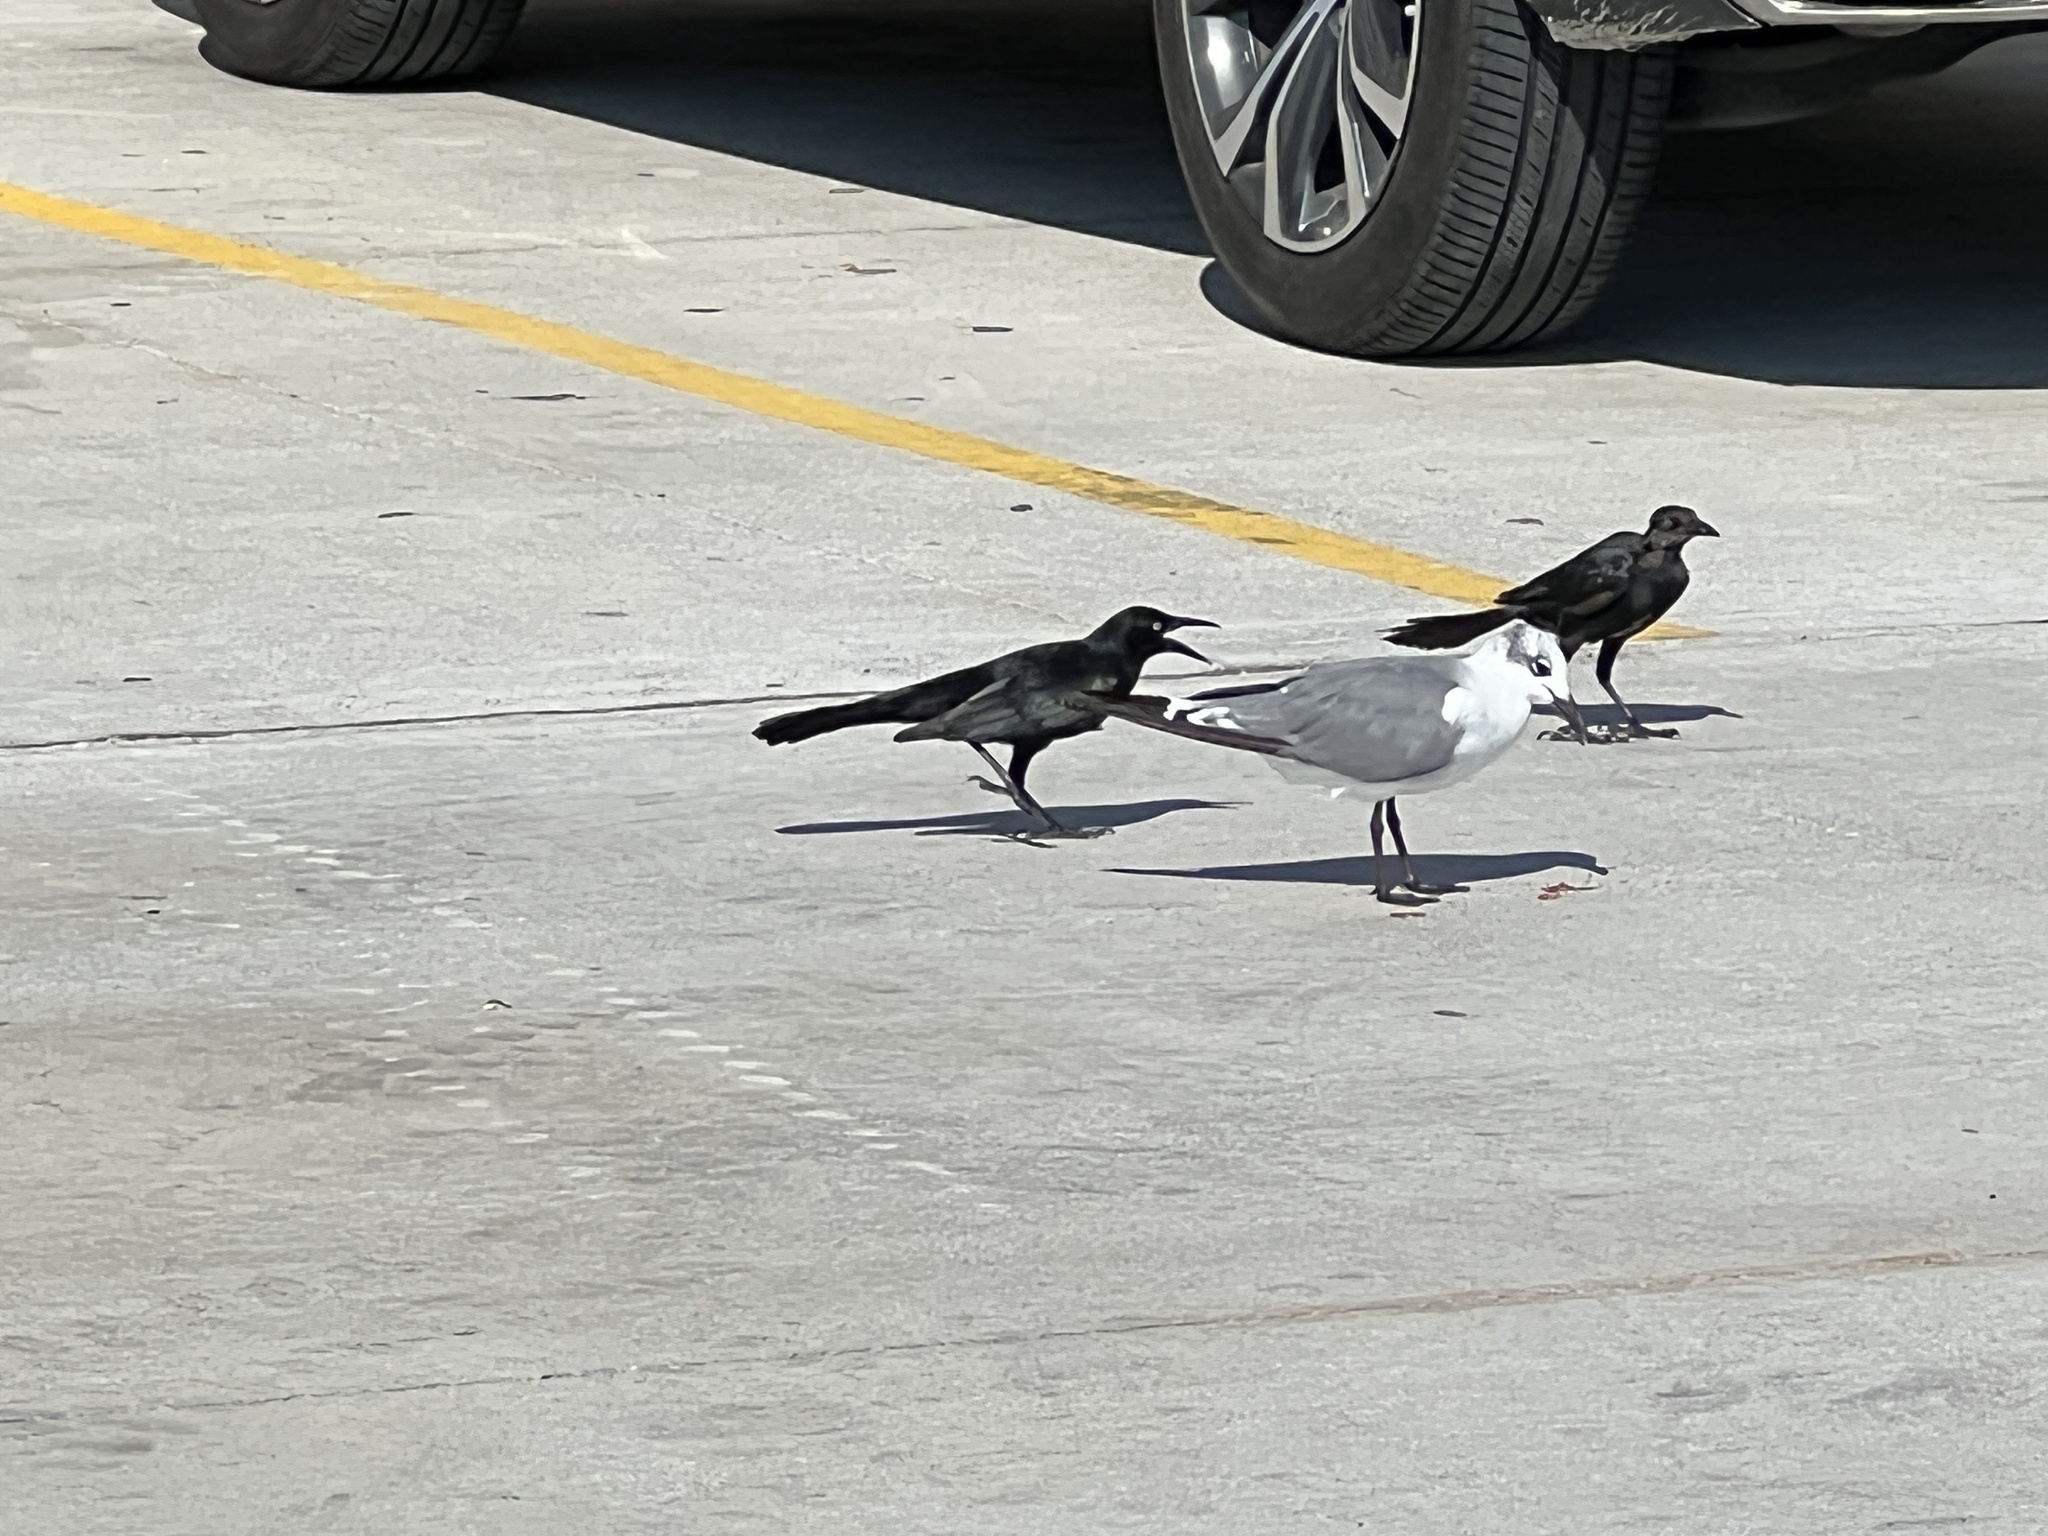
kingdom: Animalia
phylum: Chordata
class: Aves
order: Passeriformes
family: Icteridae
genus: Quiscalus
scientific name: Quiscalus mexicanus
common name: Great-tailed grackle
